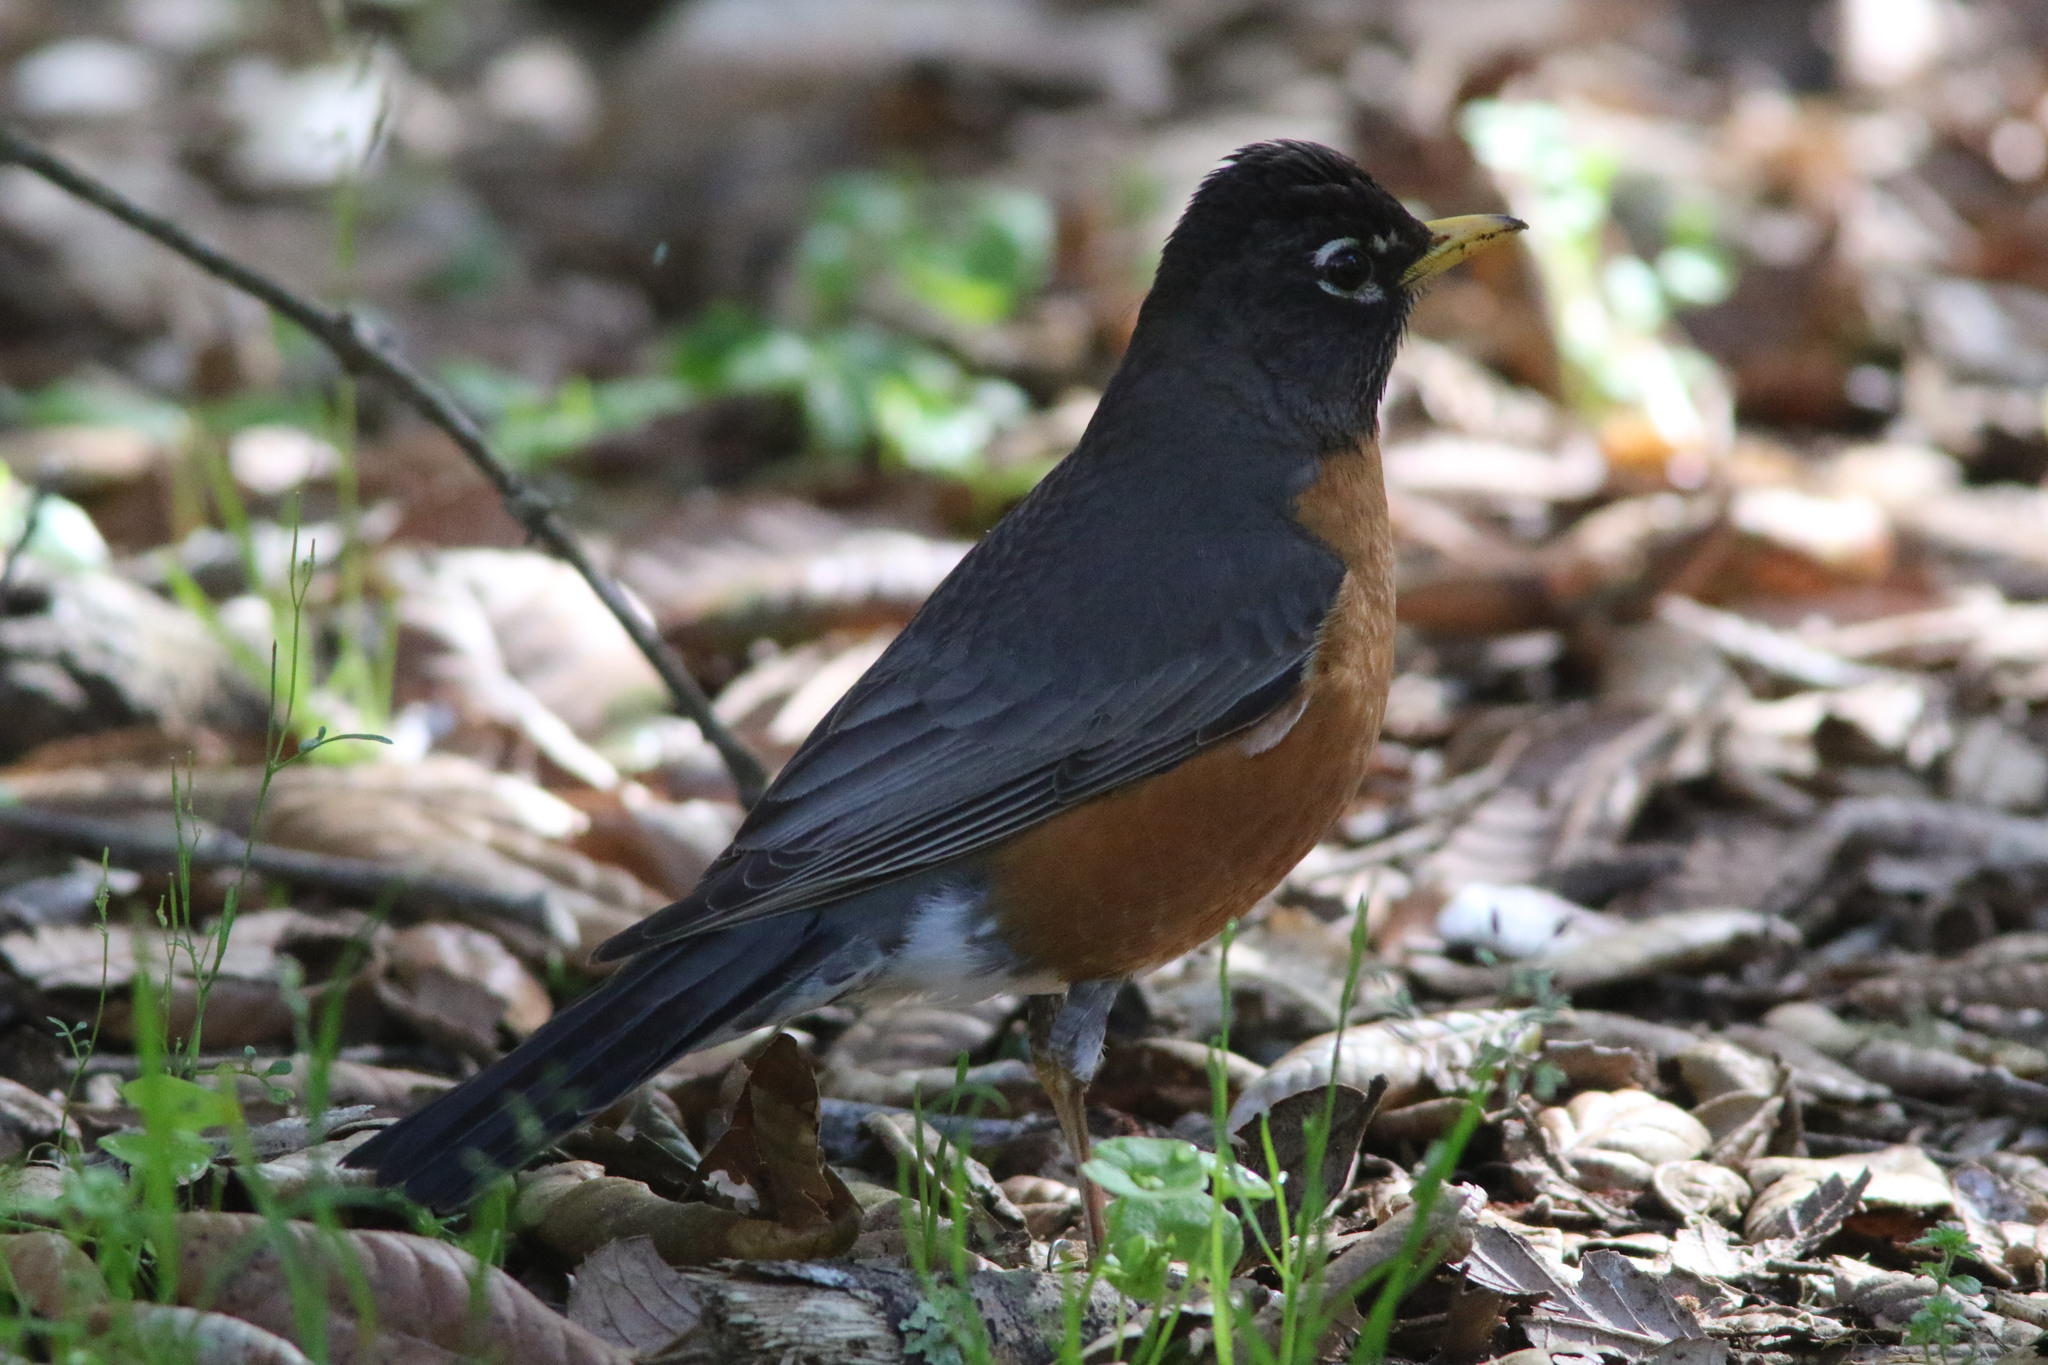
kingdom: Animalia
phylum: Chordata
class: Aves
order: Passeriformes
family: Turdidae
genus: Turdus
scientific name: Turdus migratorius
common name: American robin
